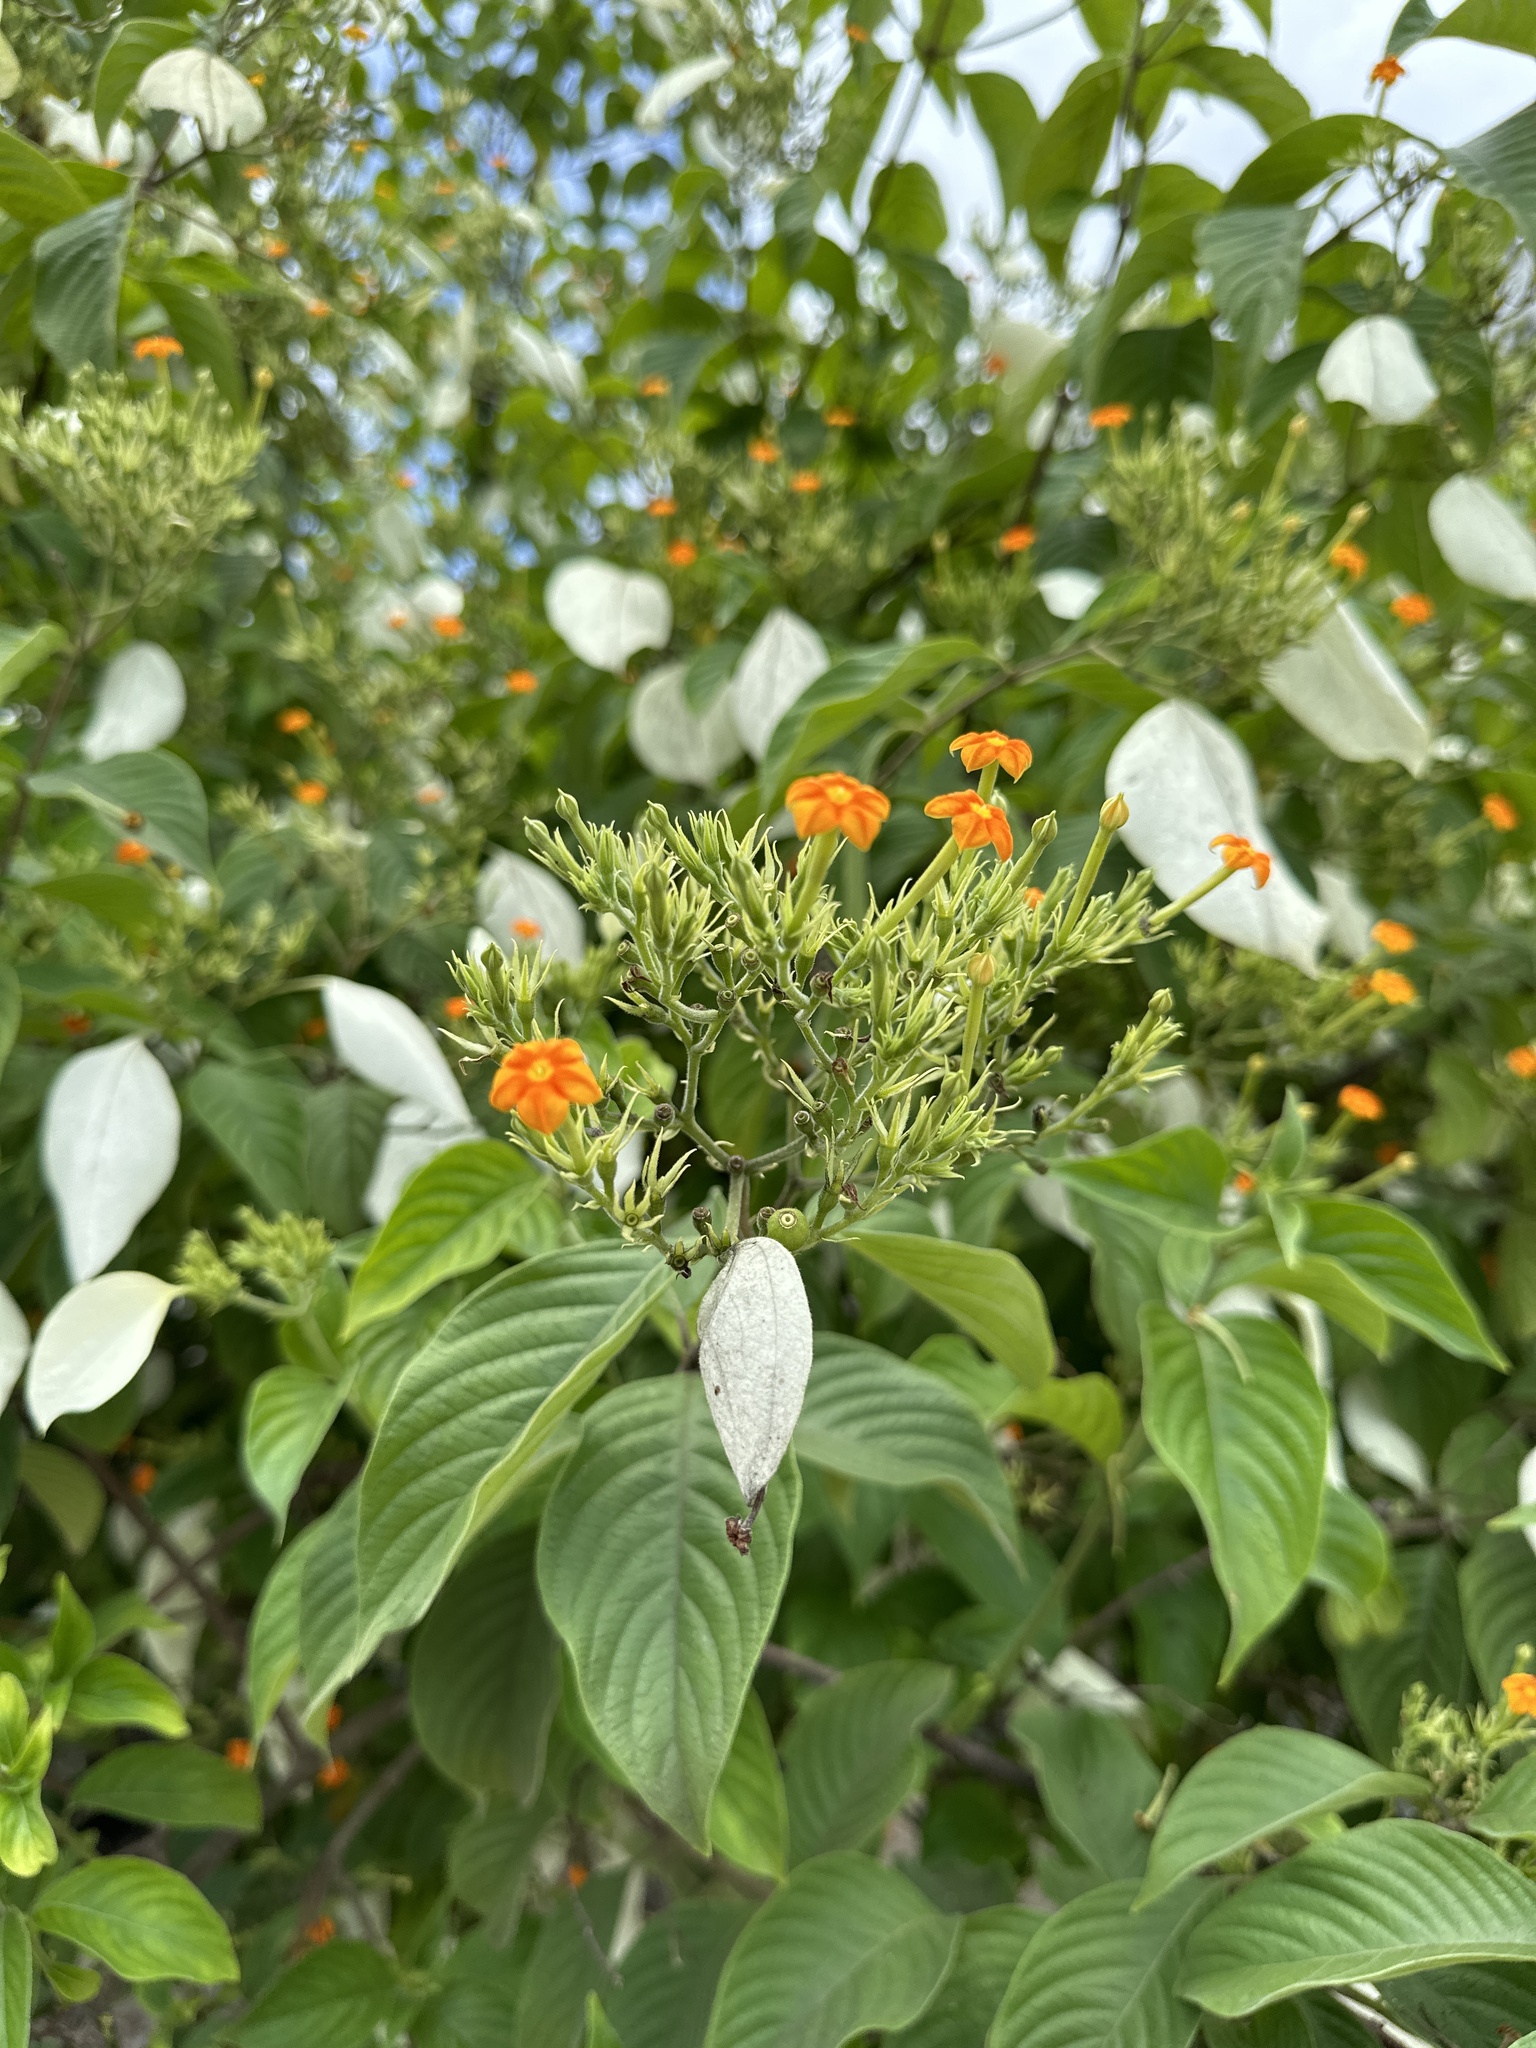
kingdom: Plantae
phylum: Tracheophyta
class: Magnoliopsida
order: Gentianales
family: Rubiaceae
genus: Mussaenda
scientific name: Mussaenda frondosa
